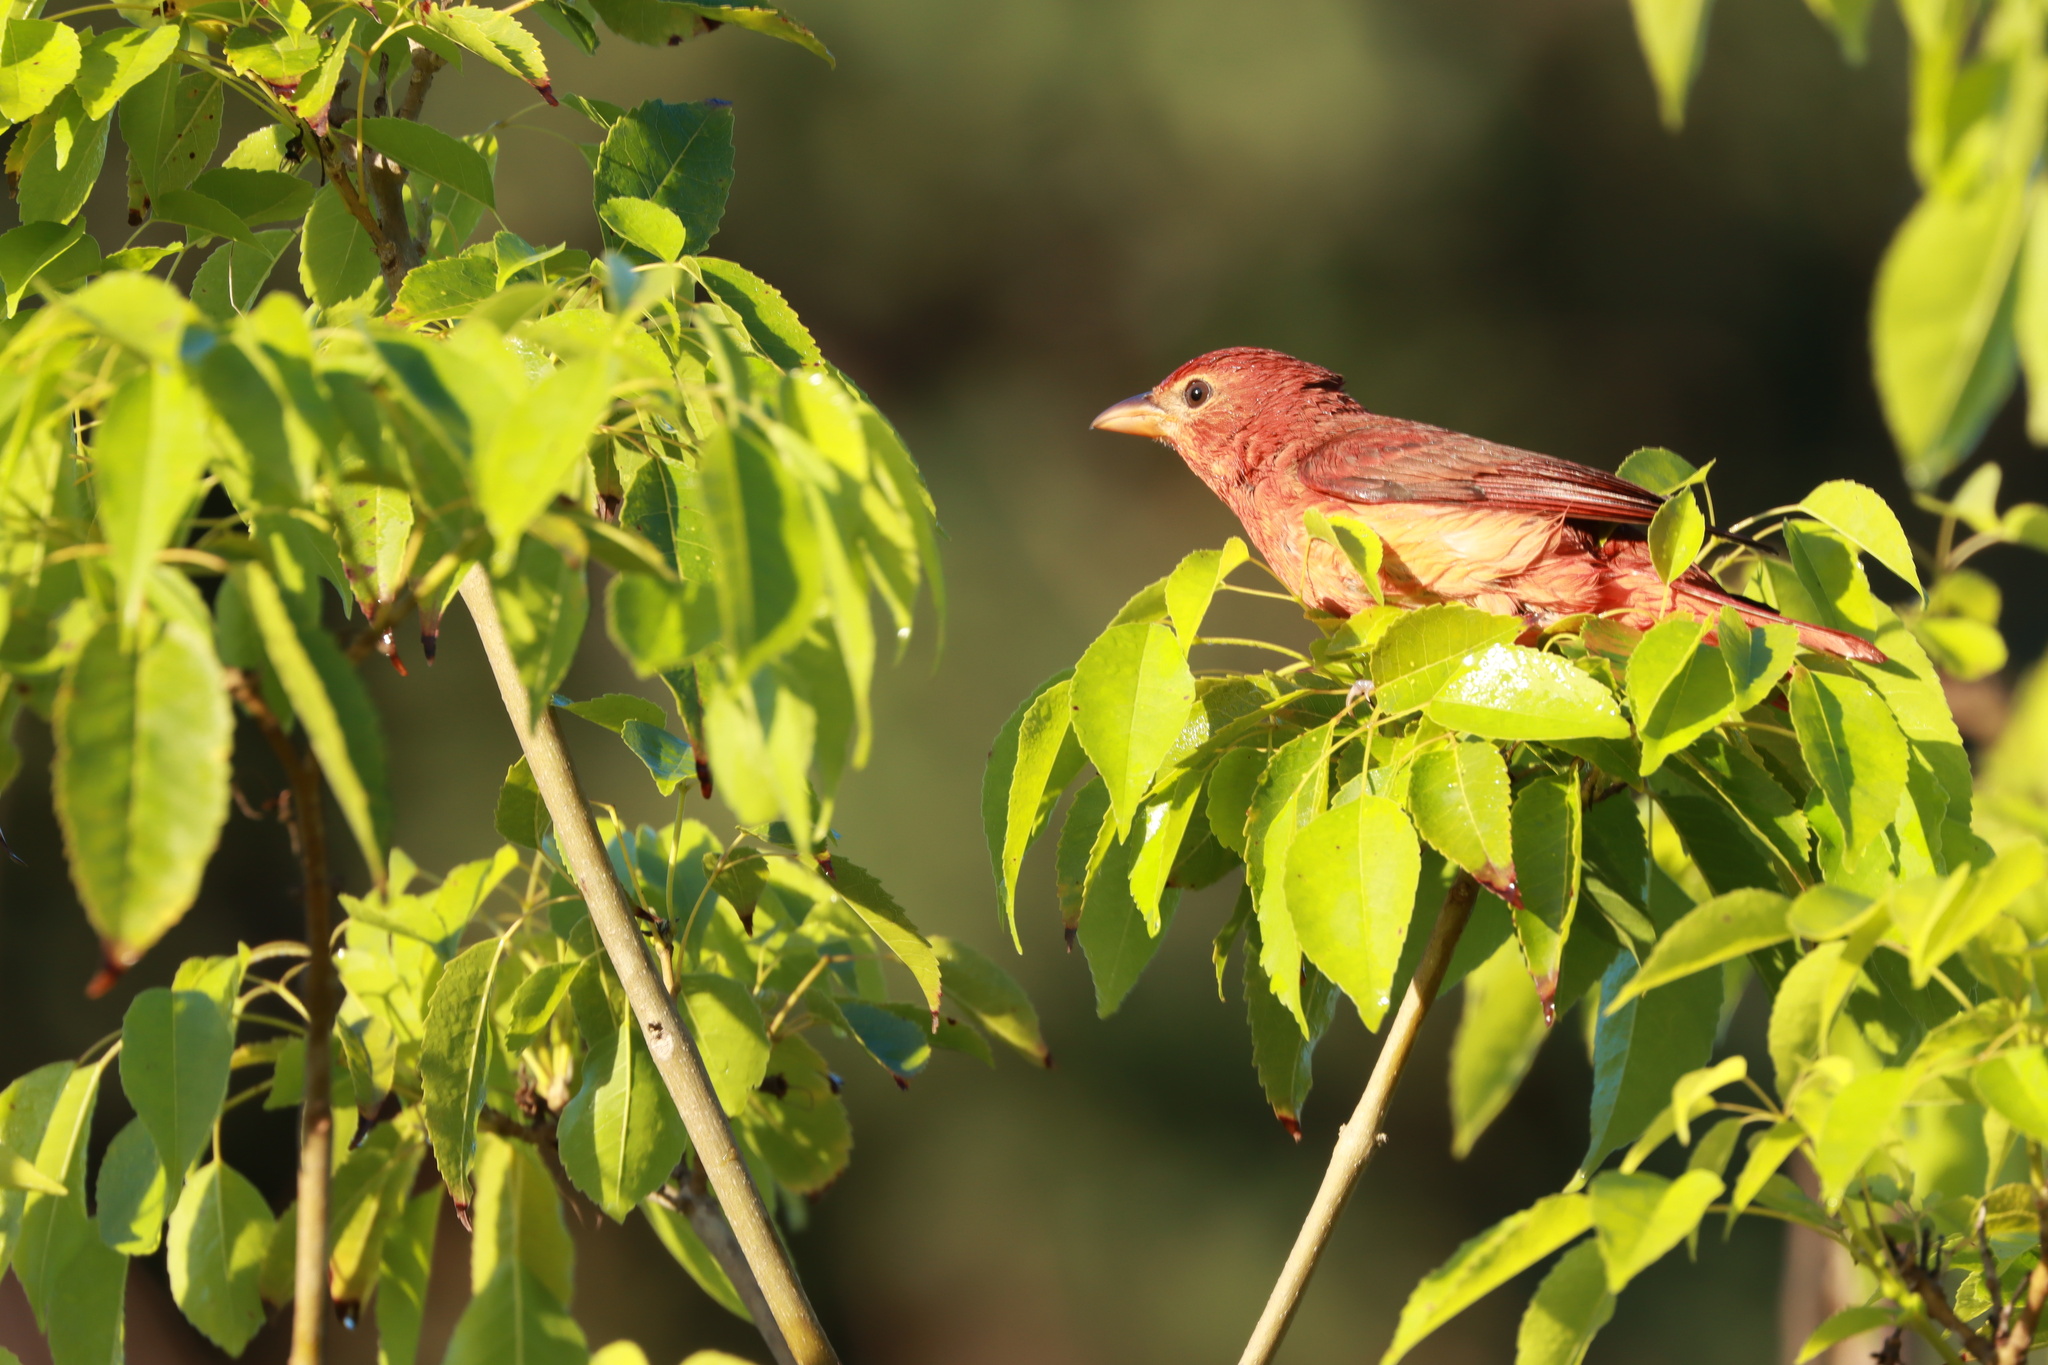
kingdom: Animalia
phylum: Chordata
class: Aves
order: Passeriformes
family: Cardinalidae
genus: Piranga
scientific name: Piranga rubra
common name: Summer tanager
